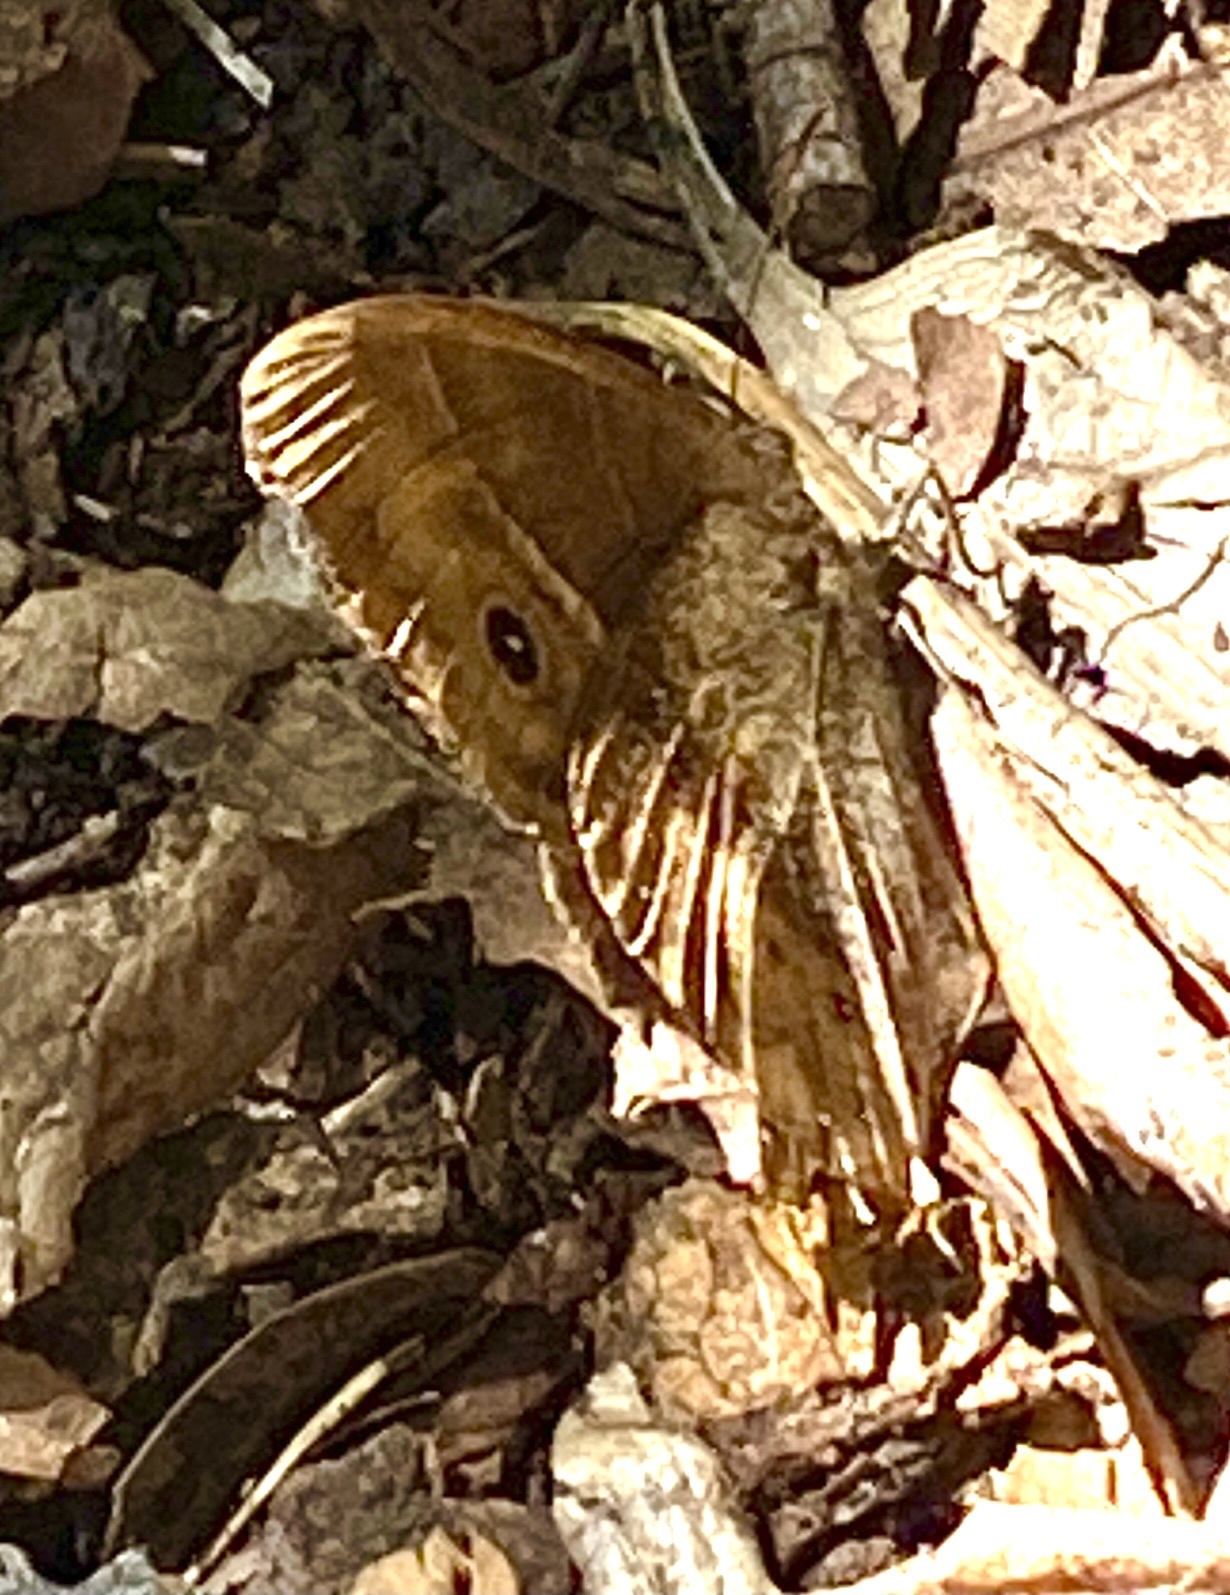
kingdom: Animalia
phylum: Arthropoda
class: Insecta
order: Lepidoptera
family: Nymphalidae
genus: Mycalesis
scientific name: Mycalesis rhacotis
